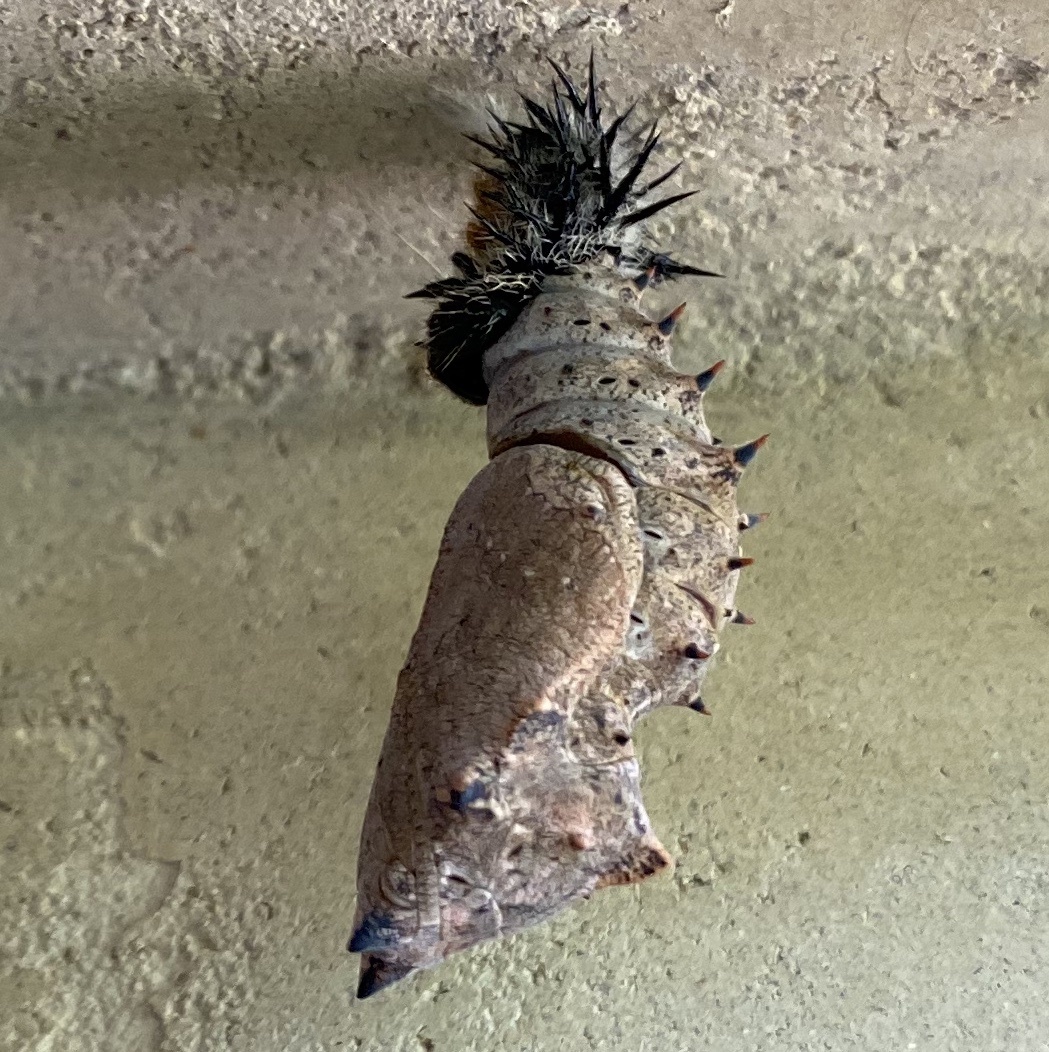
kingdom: Animalia
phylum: Arthropoda
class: Insecta
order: Lepidoptera
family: Nymphalidae
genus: Nymphalis
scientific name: Nymphalis antiopa
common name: Camberwell beauty
